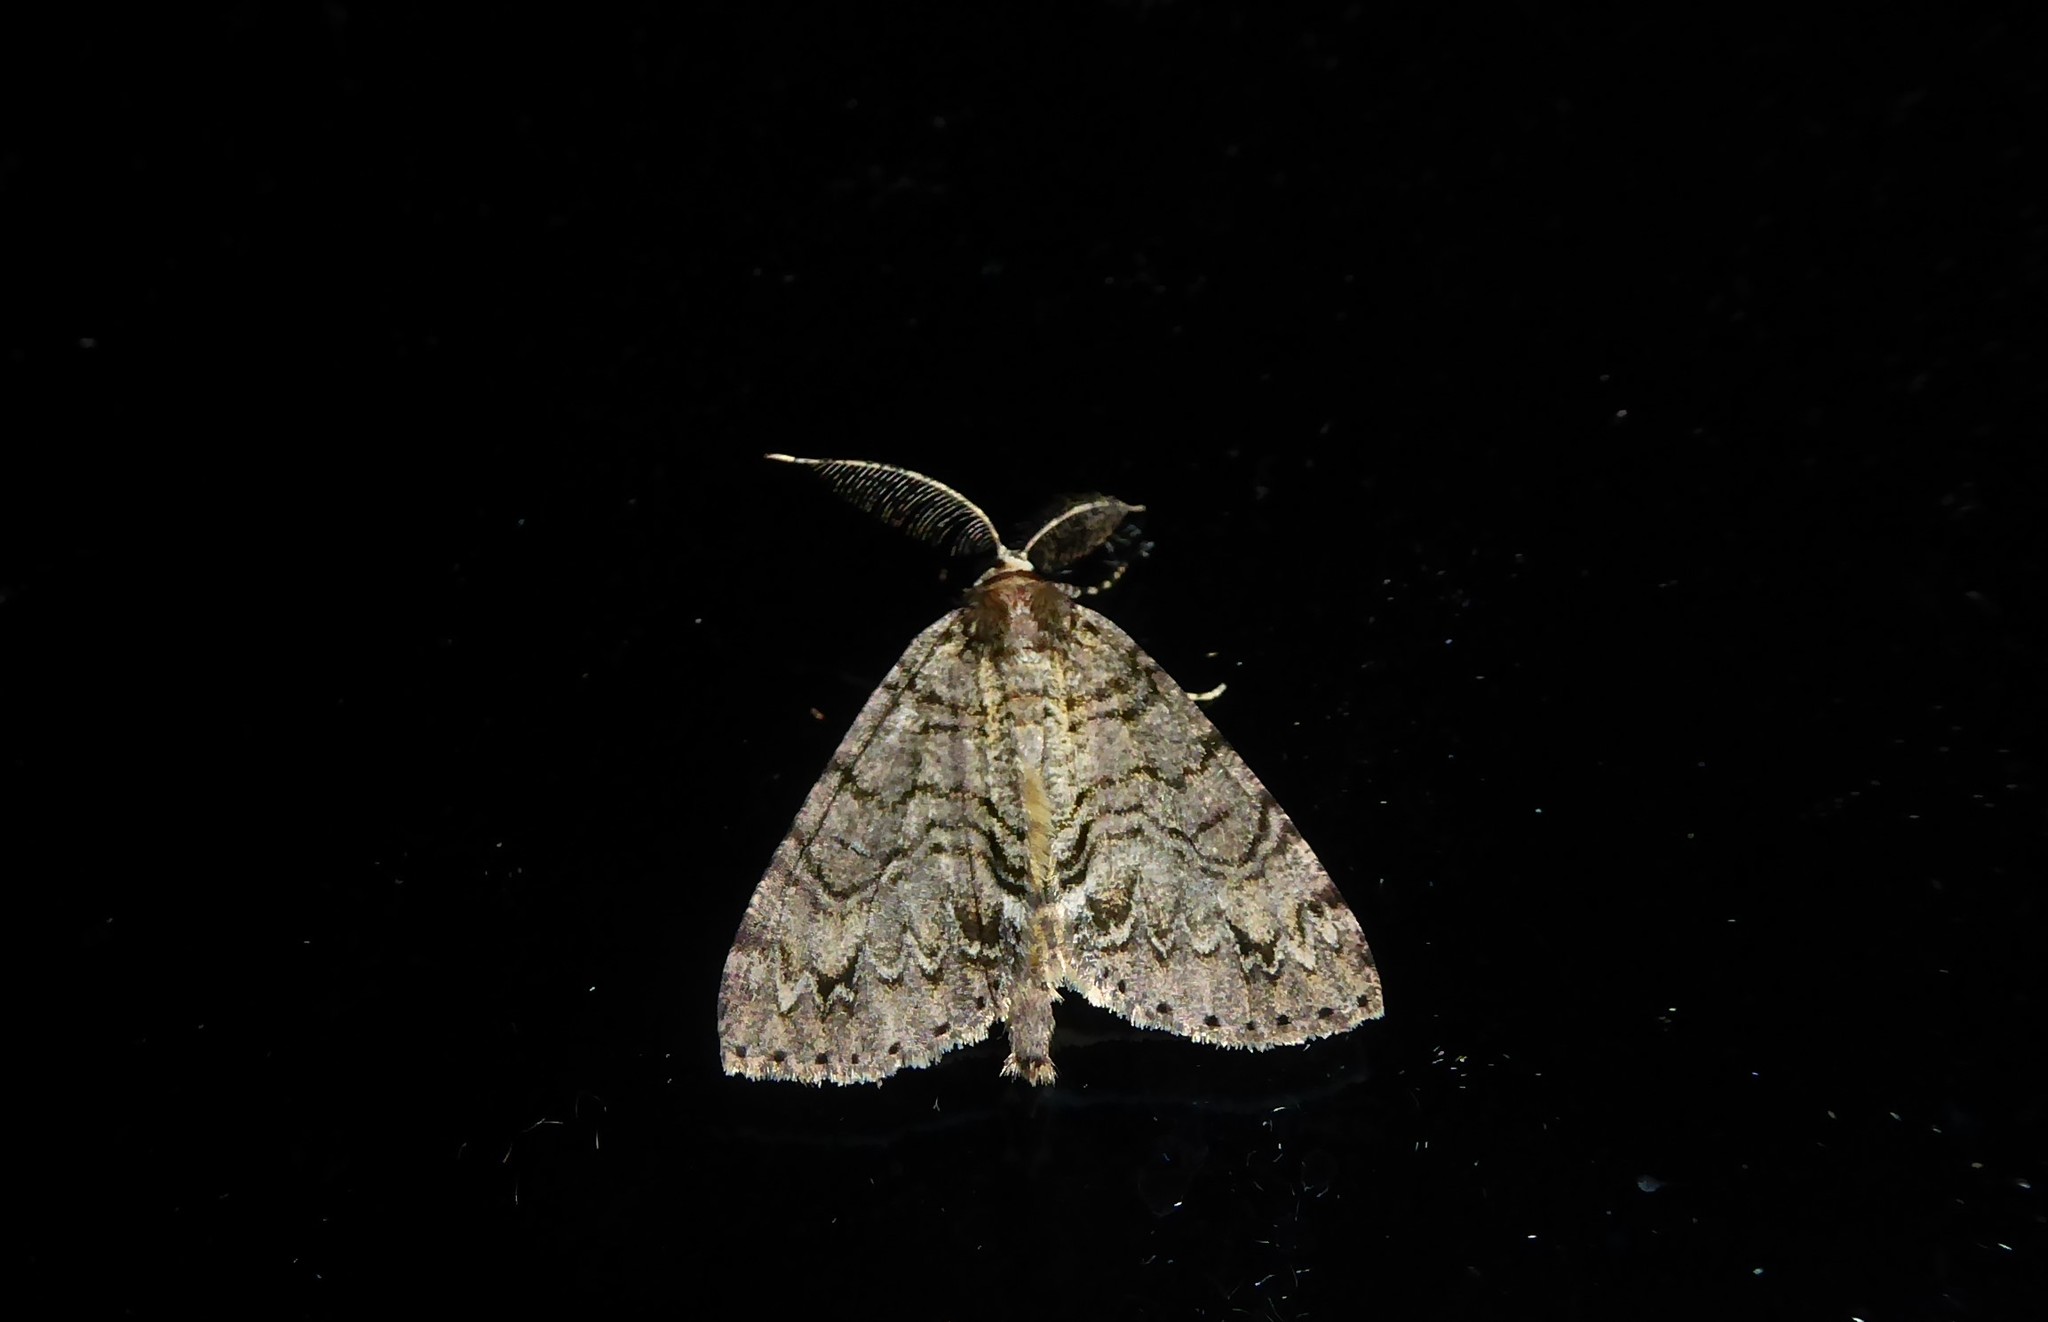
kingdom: Animalia
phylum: Arthropoda
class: Insecta
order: Lepidoptera
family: Geometridae
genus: Pseudocoremia
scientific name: Pseudocoremia suavis
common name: Common forest looper
